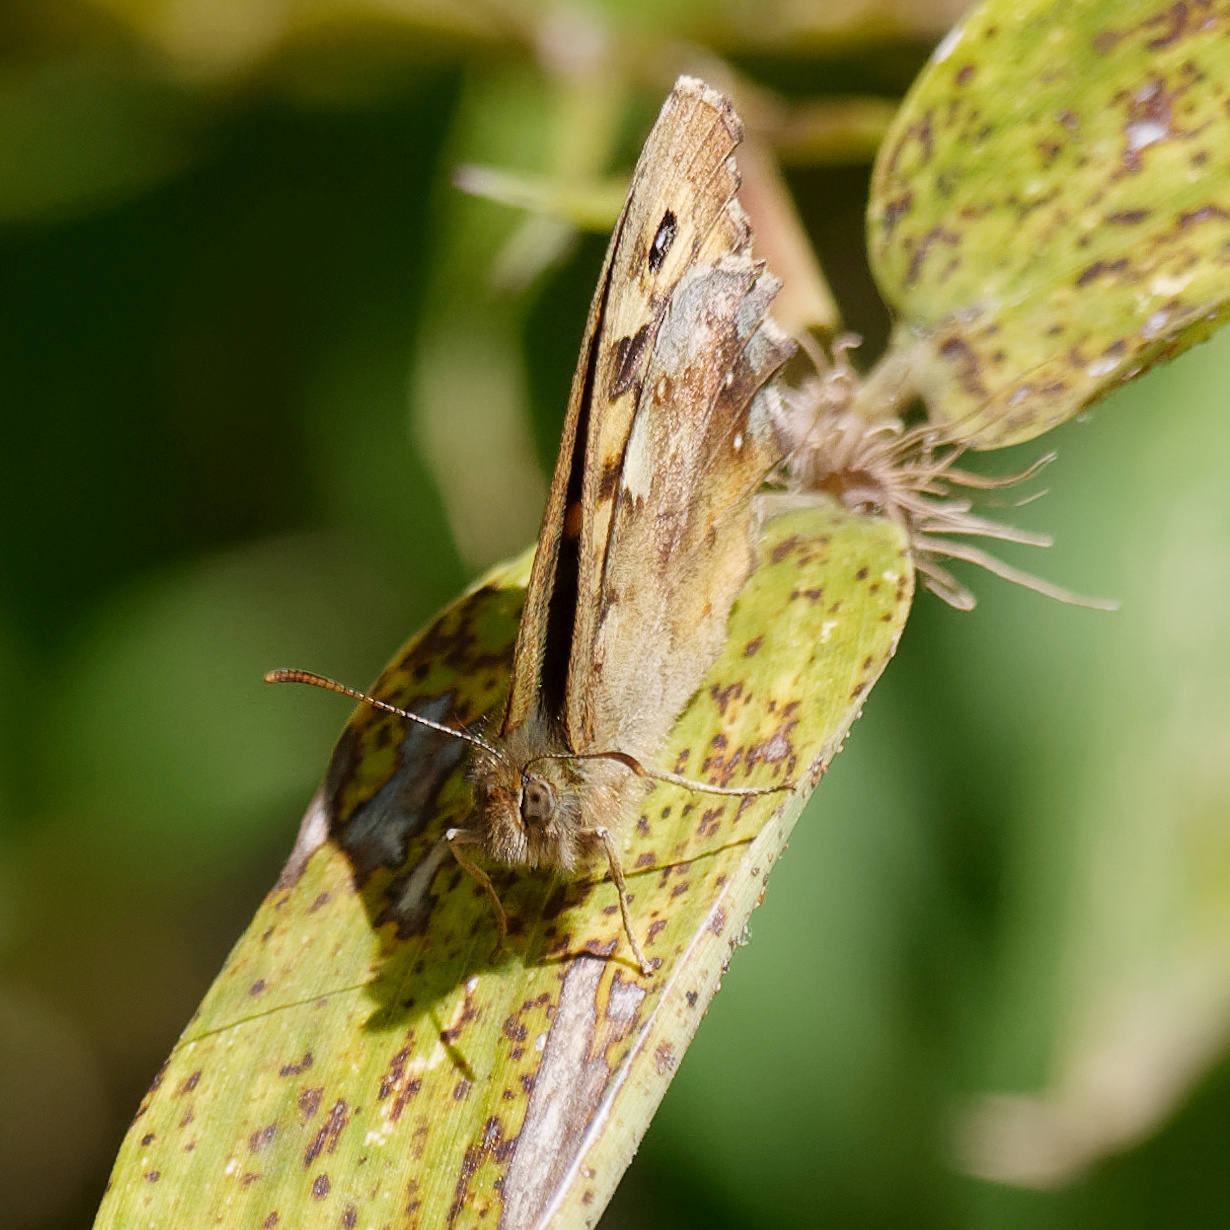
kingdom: Animalia
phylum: Arthropoda
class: Insecta
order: Lepidoptera
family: Nymphalidae
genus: Pararge
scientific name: Pararge aegeria
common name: Speckled wood
